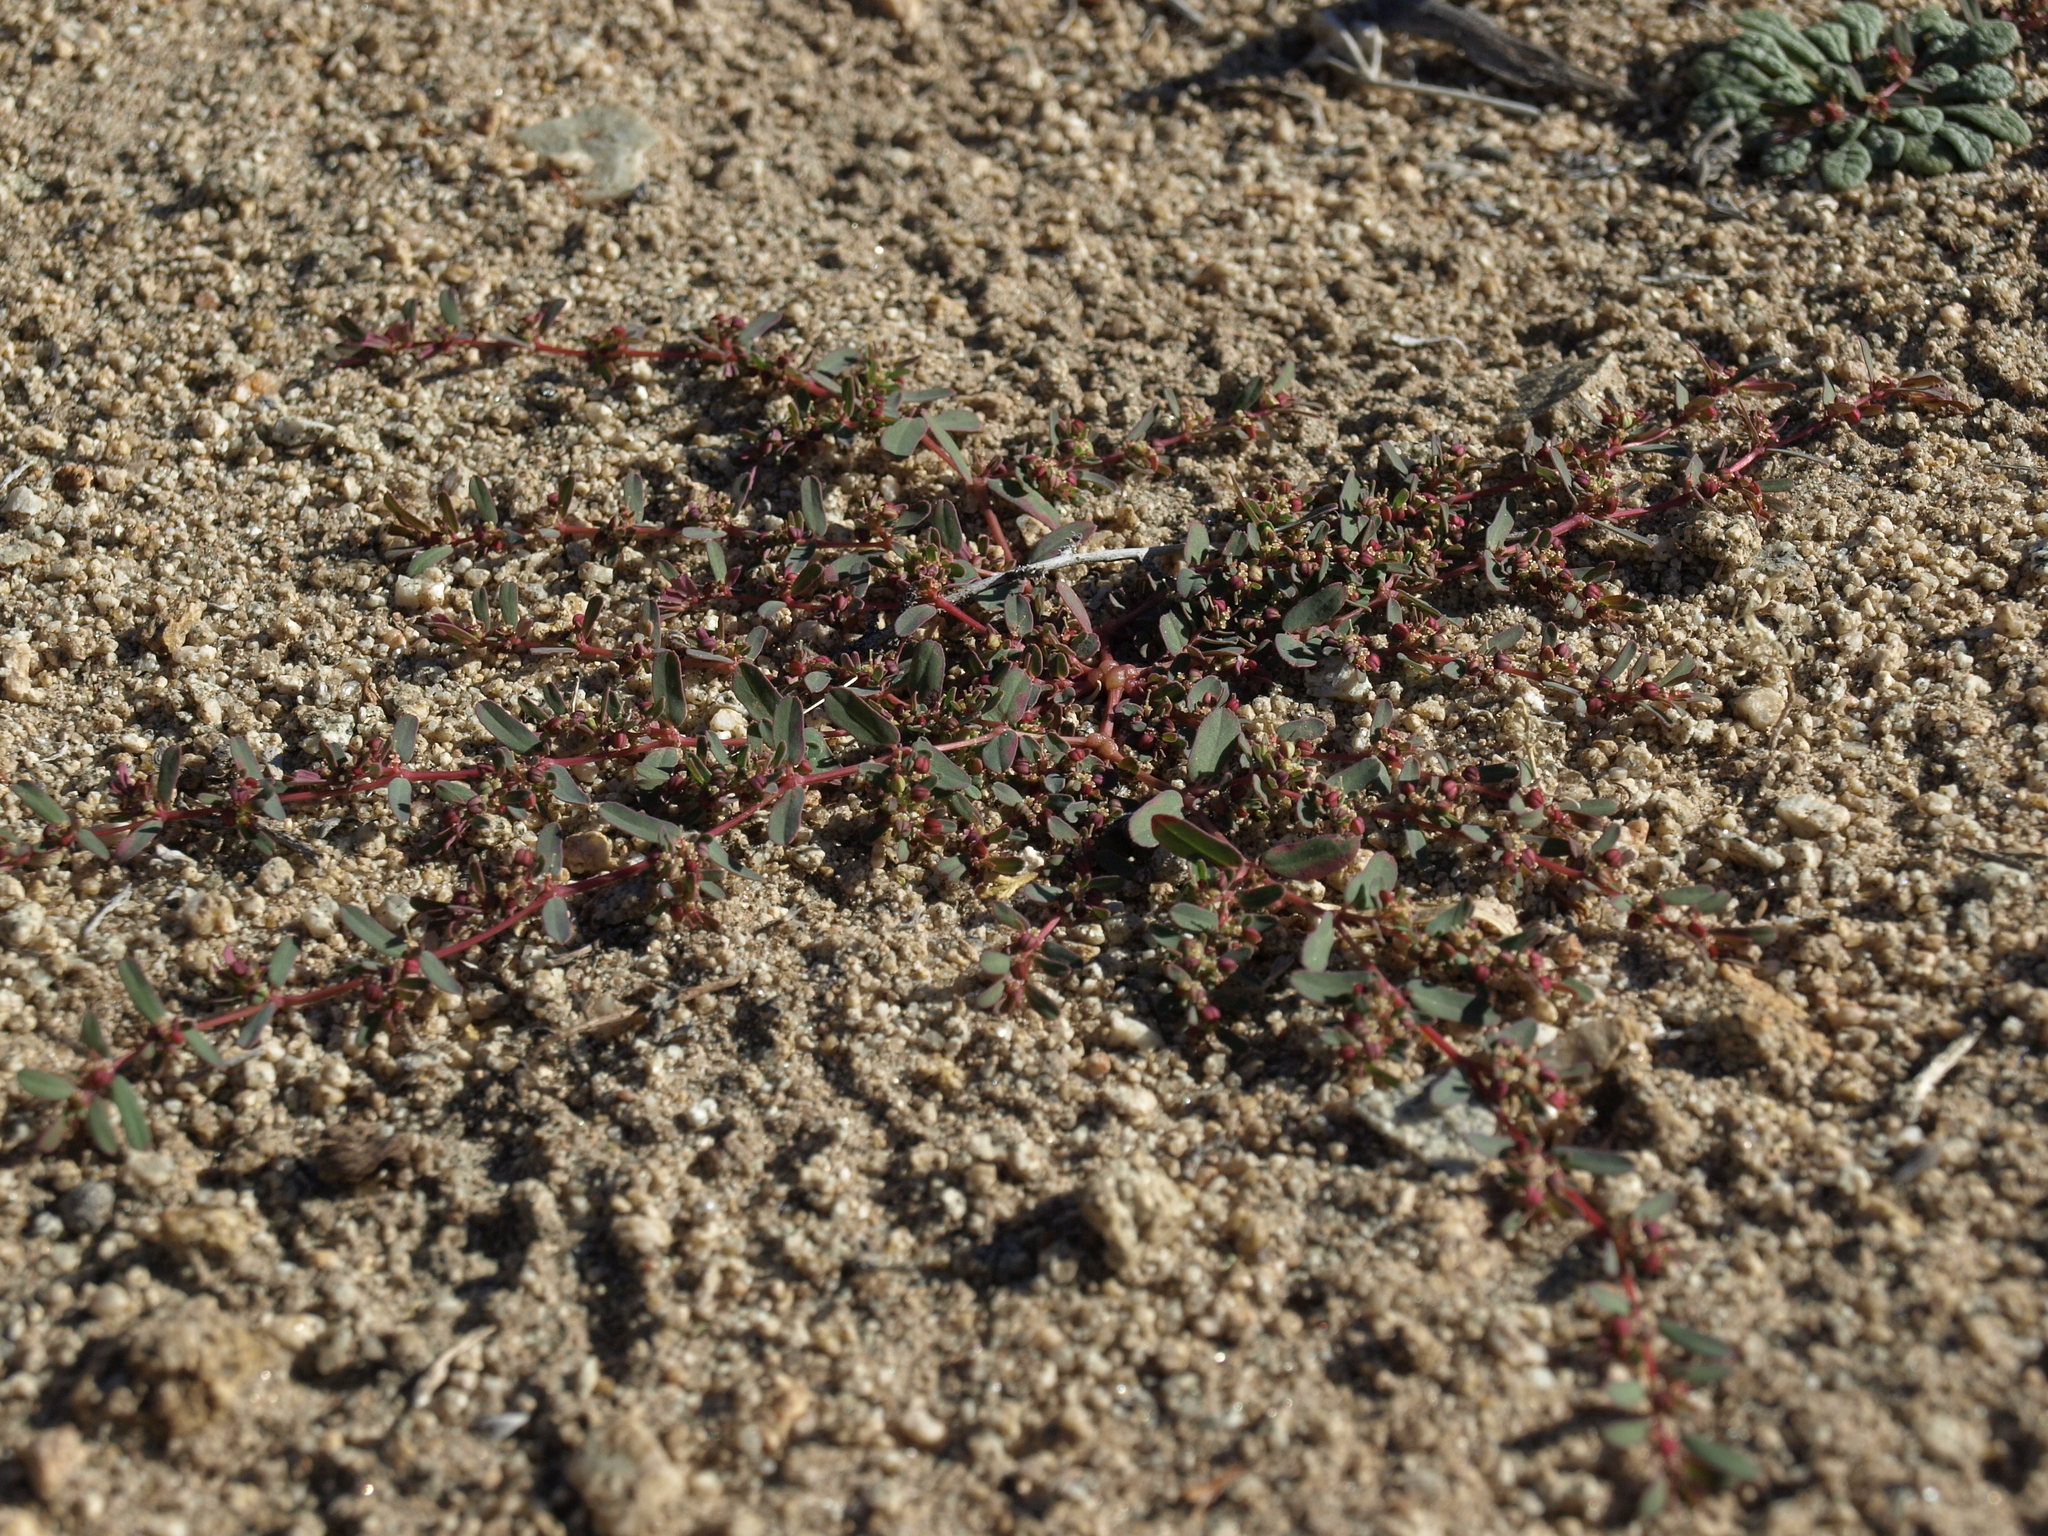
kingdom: Plantae
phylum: Tracheophyta
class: Magnoliopsida
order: Malpighiales
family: Euphorbiaceae
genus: Euphorbia
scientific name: Euphorbia serpillifolia
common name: Thyme-leaf spurge
